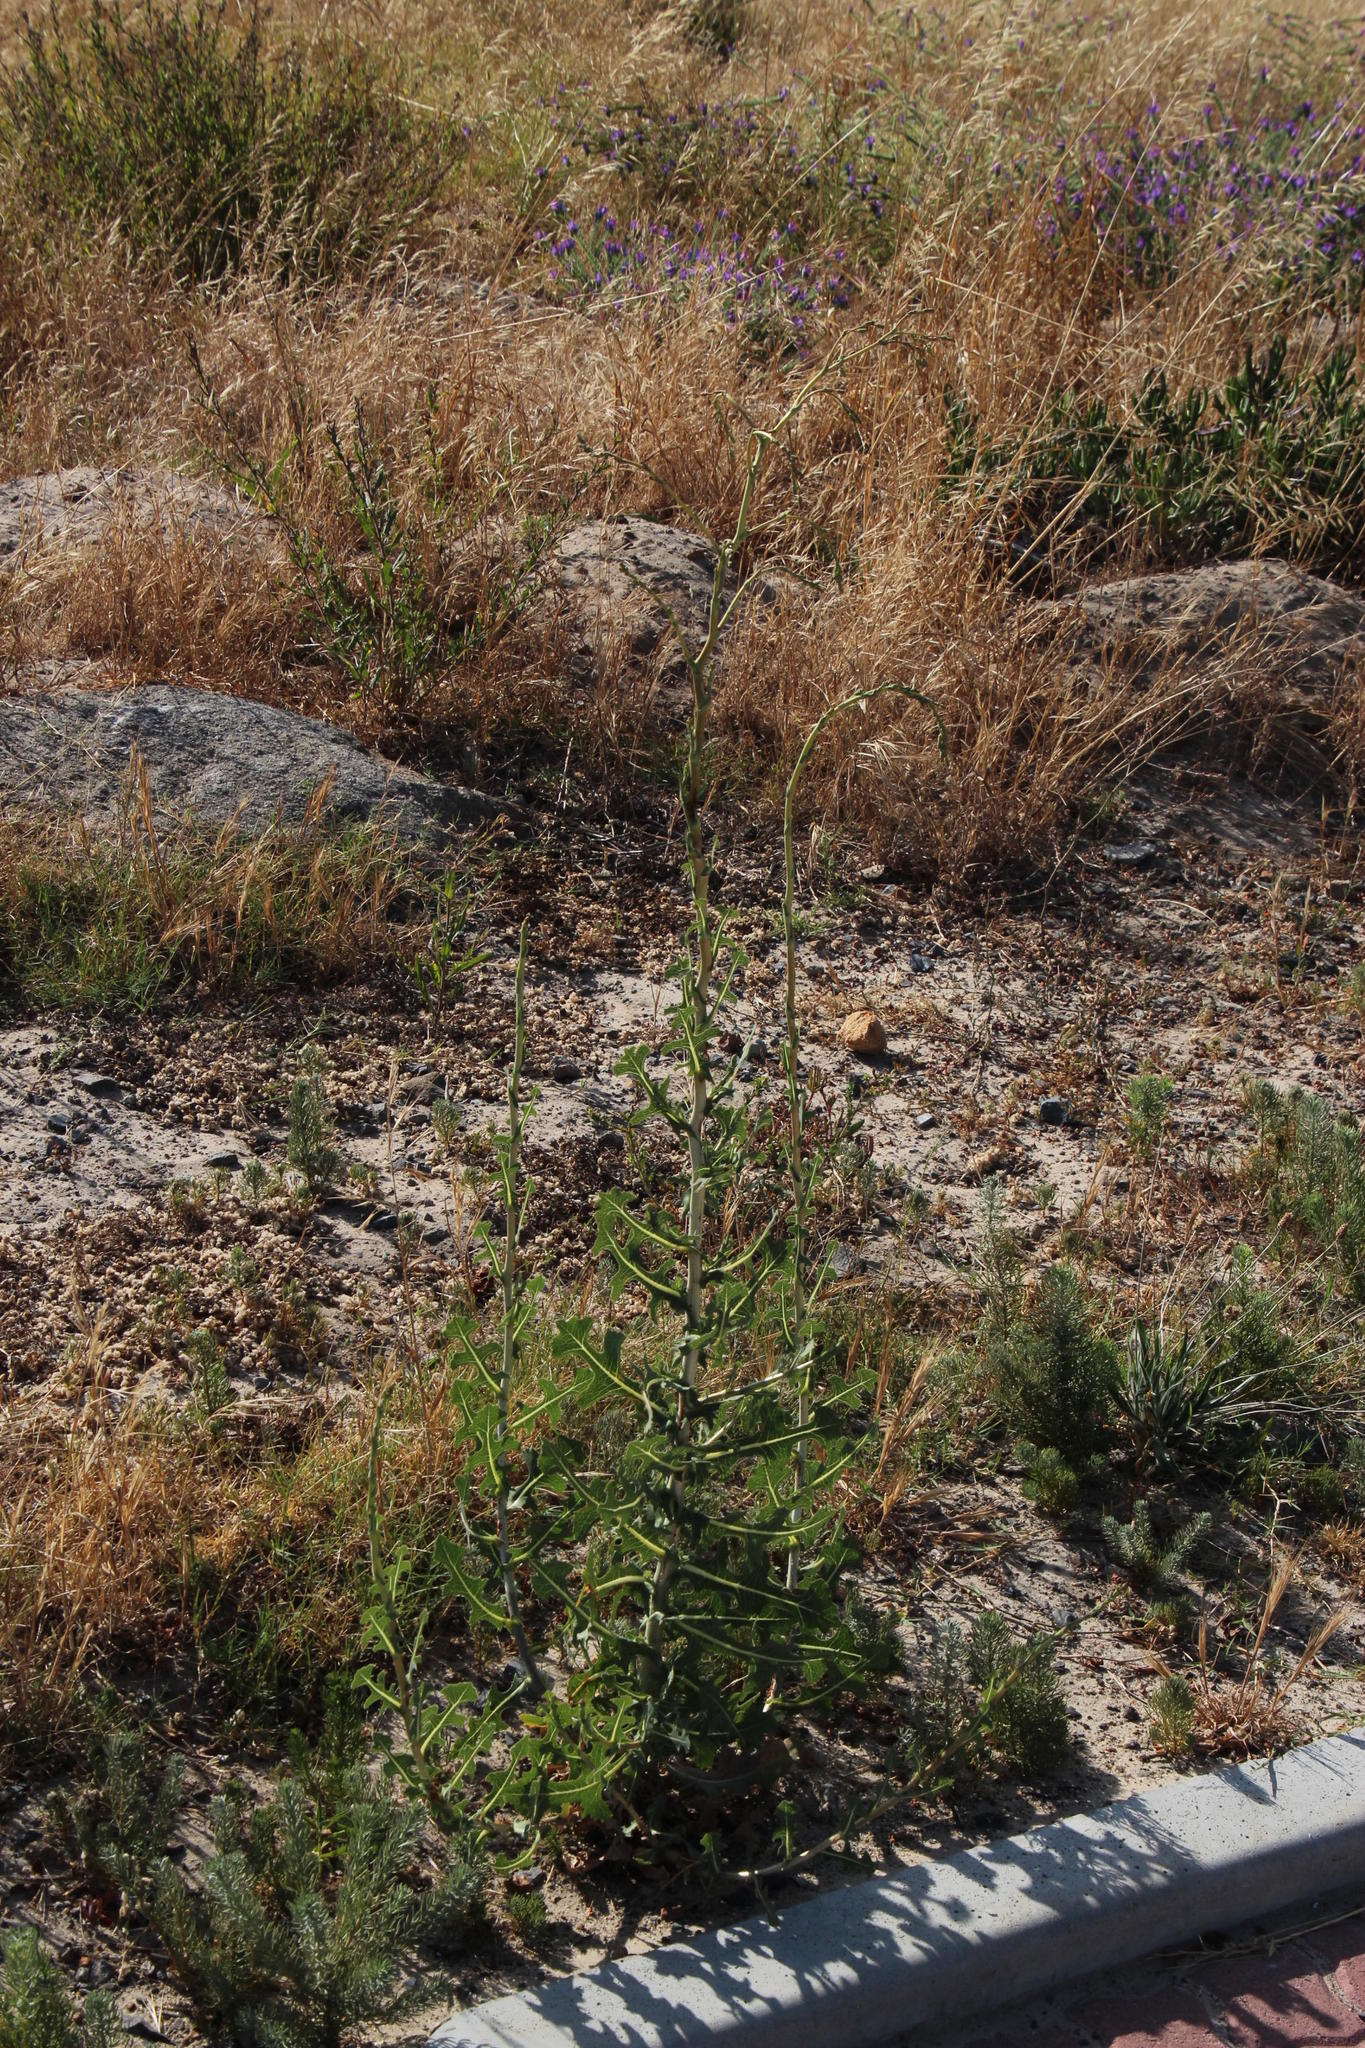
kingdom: Plantae
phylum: Tracheophyta
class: Magnoliopsida
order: Asterales
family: Asteraceae
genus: Lactuca
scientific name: Lactuca serriola
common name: Prickly lettuce
